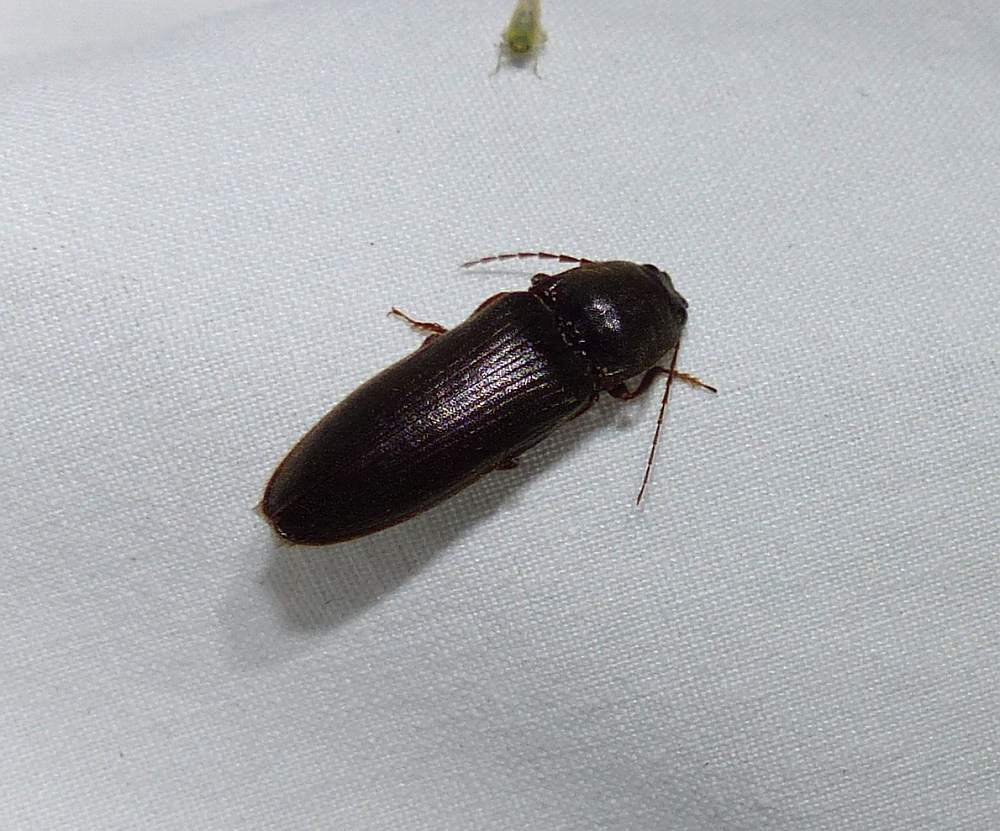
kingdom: Animalia
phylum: Arthropoda
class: Insecta
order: Coleoptera
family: Elateridae
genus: Hemicrepidius
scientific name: Hemicrepidius
